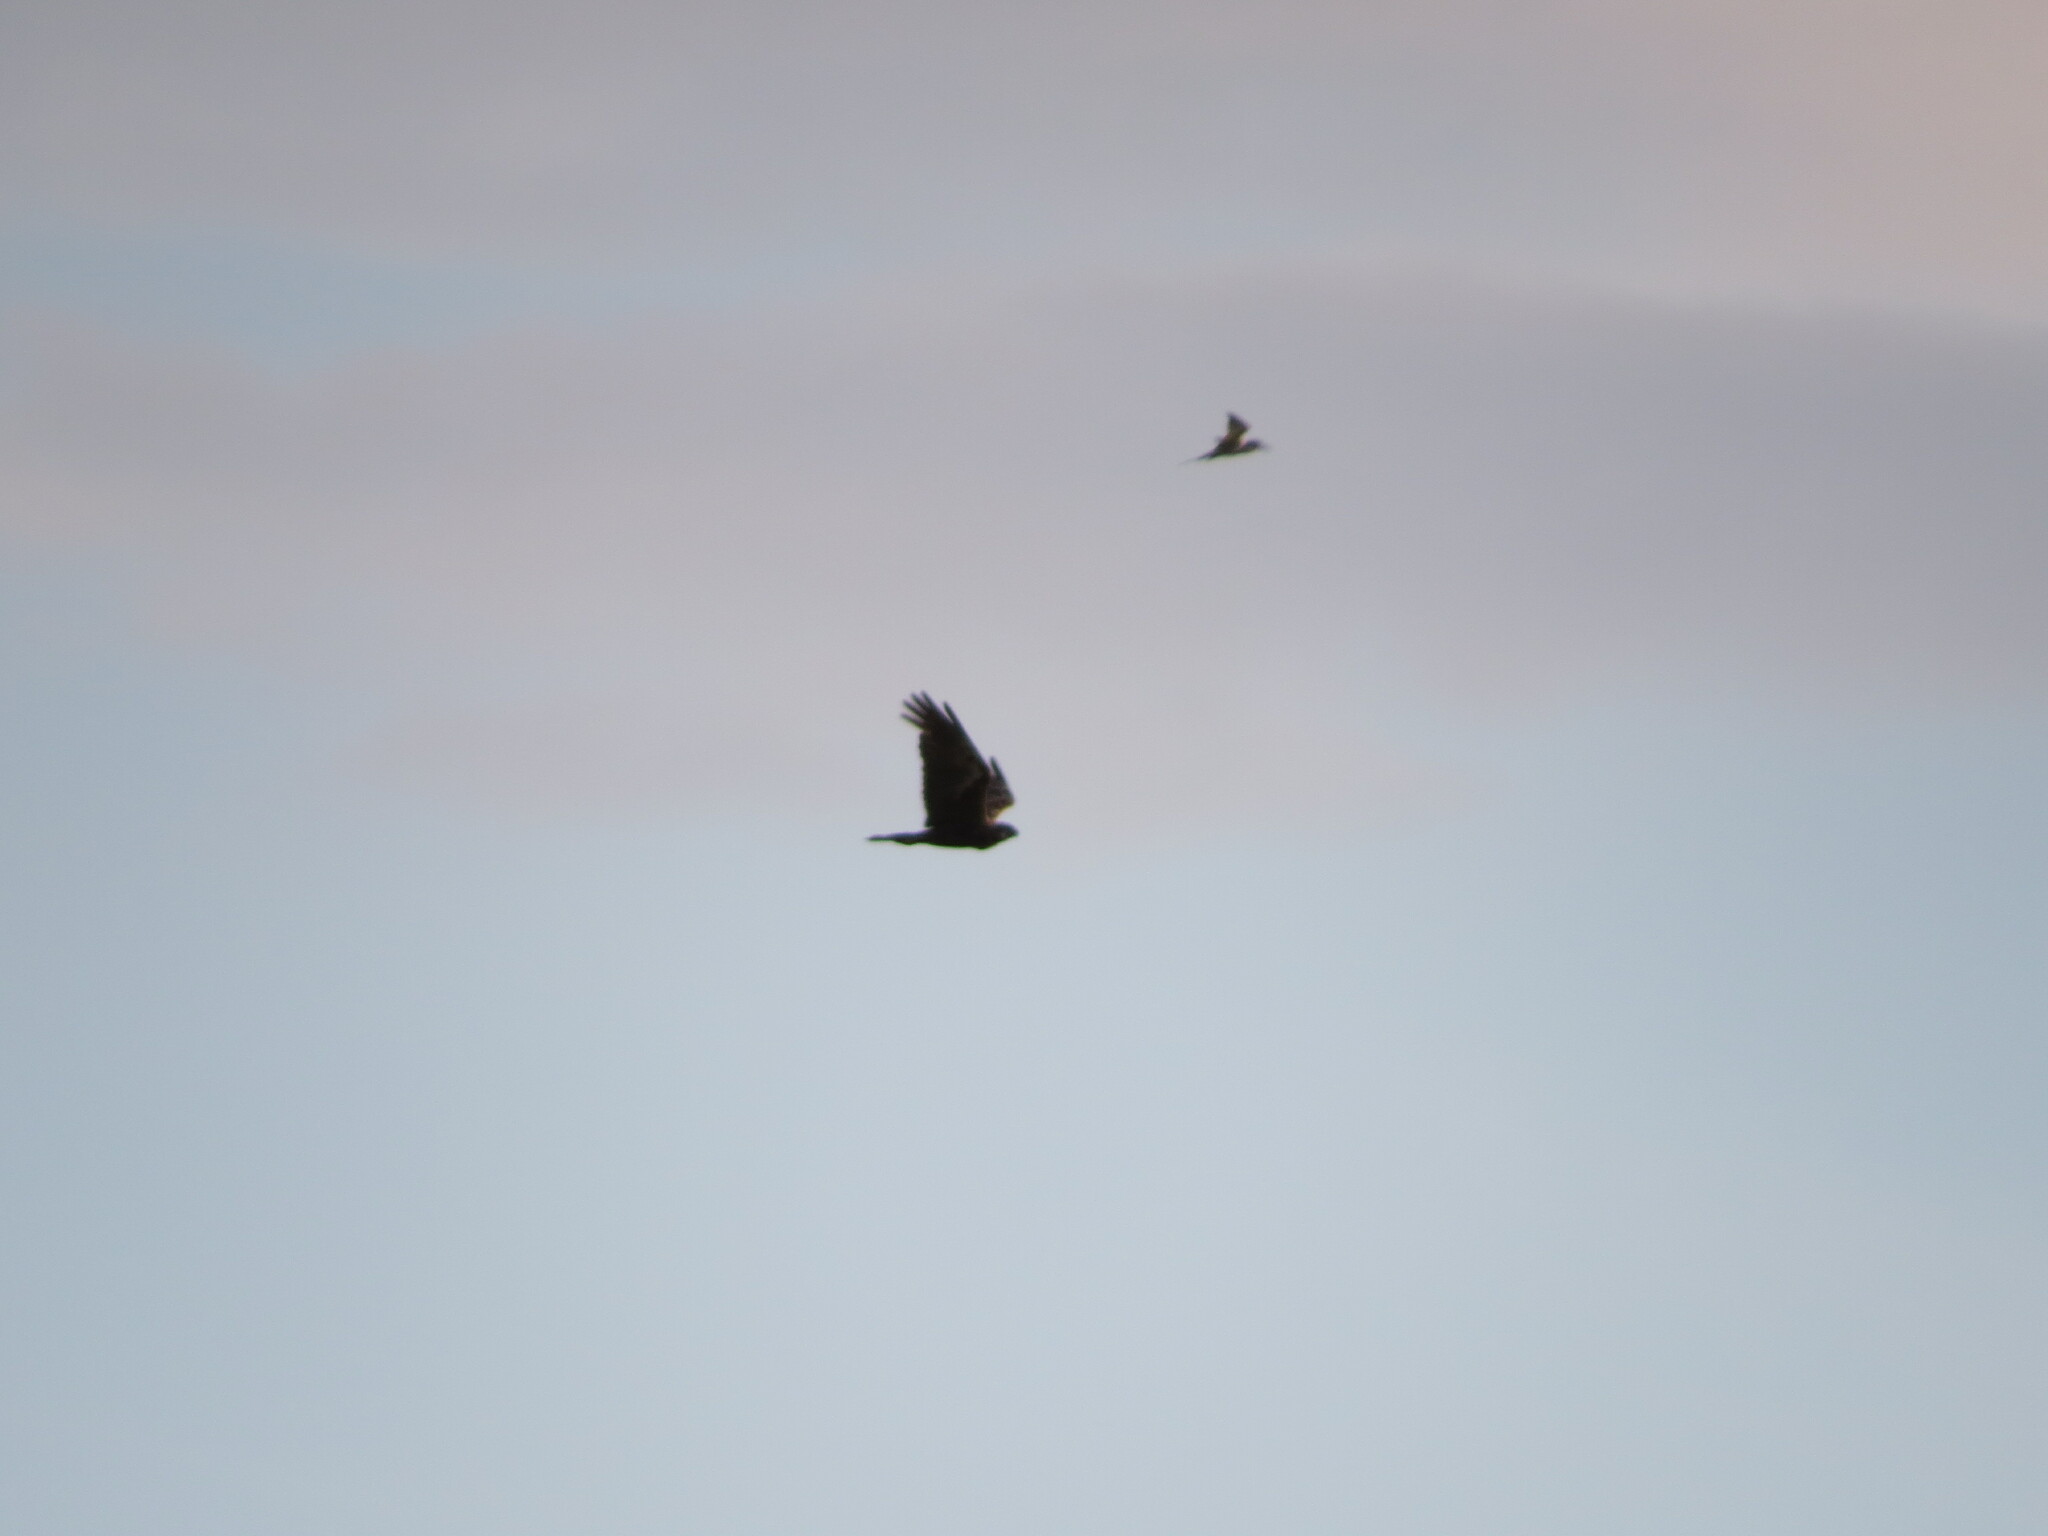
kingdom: Animalia
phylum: Chordata
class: Aves
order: Accipitriformes
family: Accipitridae
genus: Circus
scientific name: Circus aeruginosus
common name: Western marsh harrier
